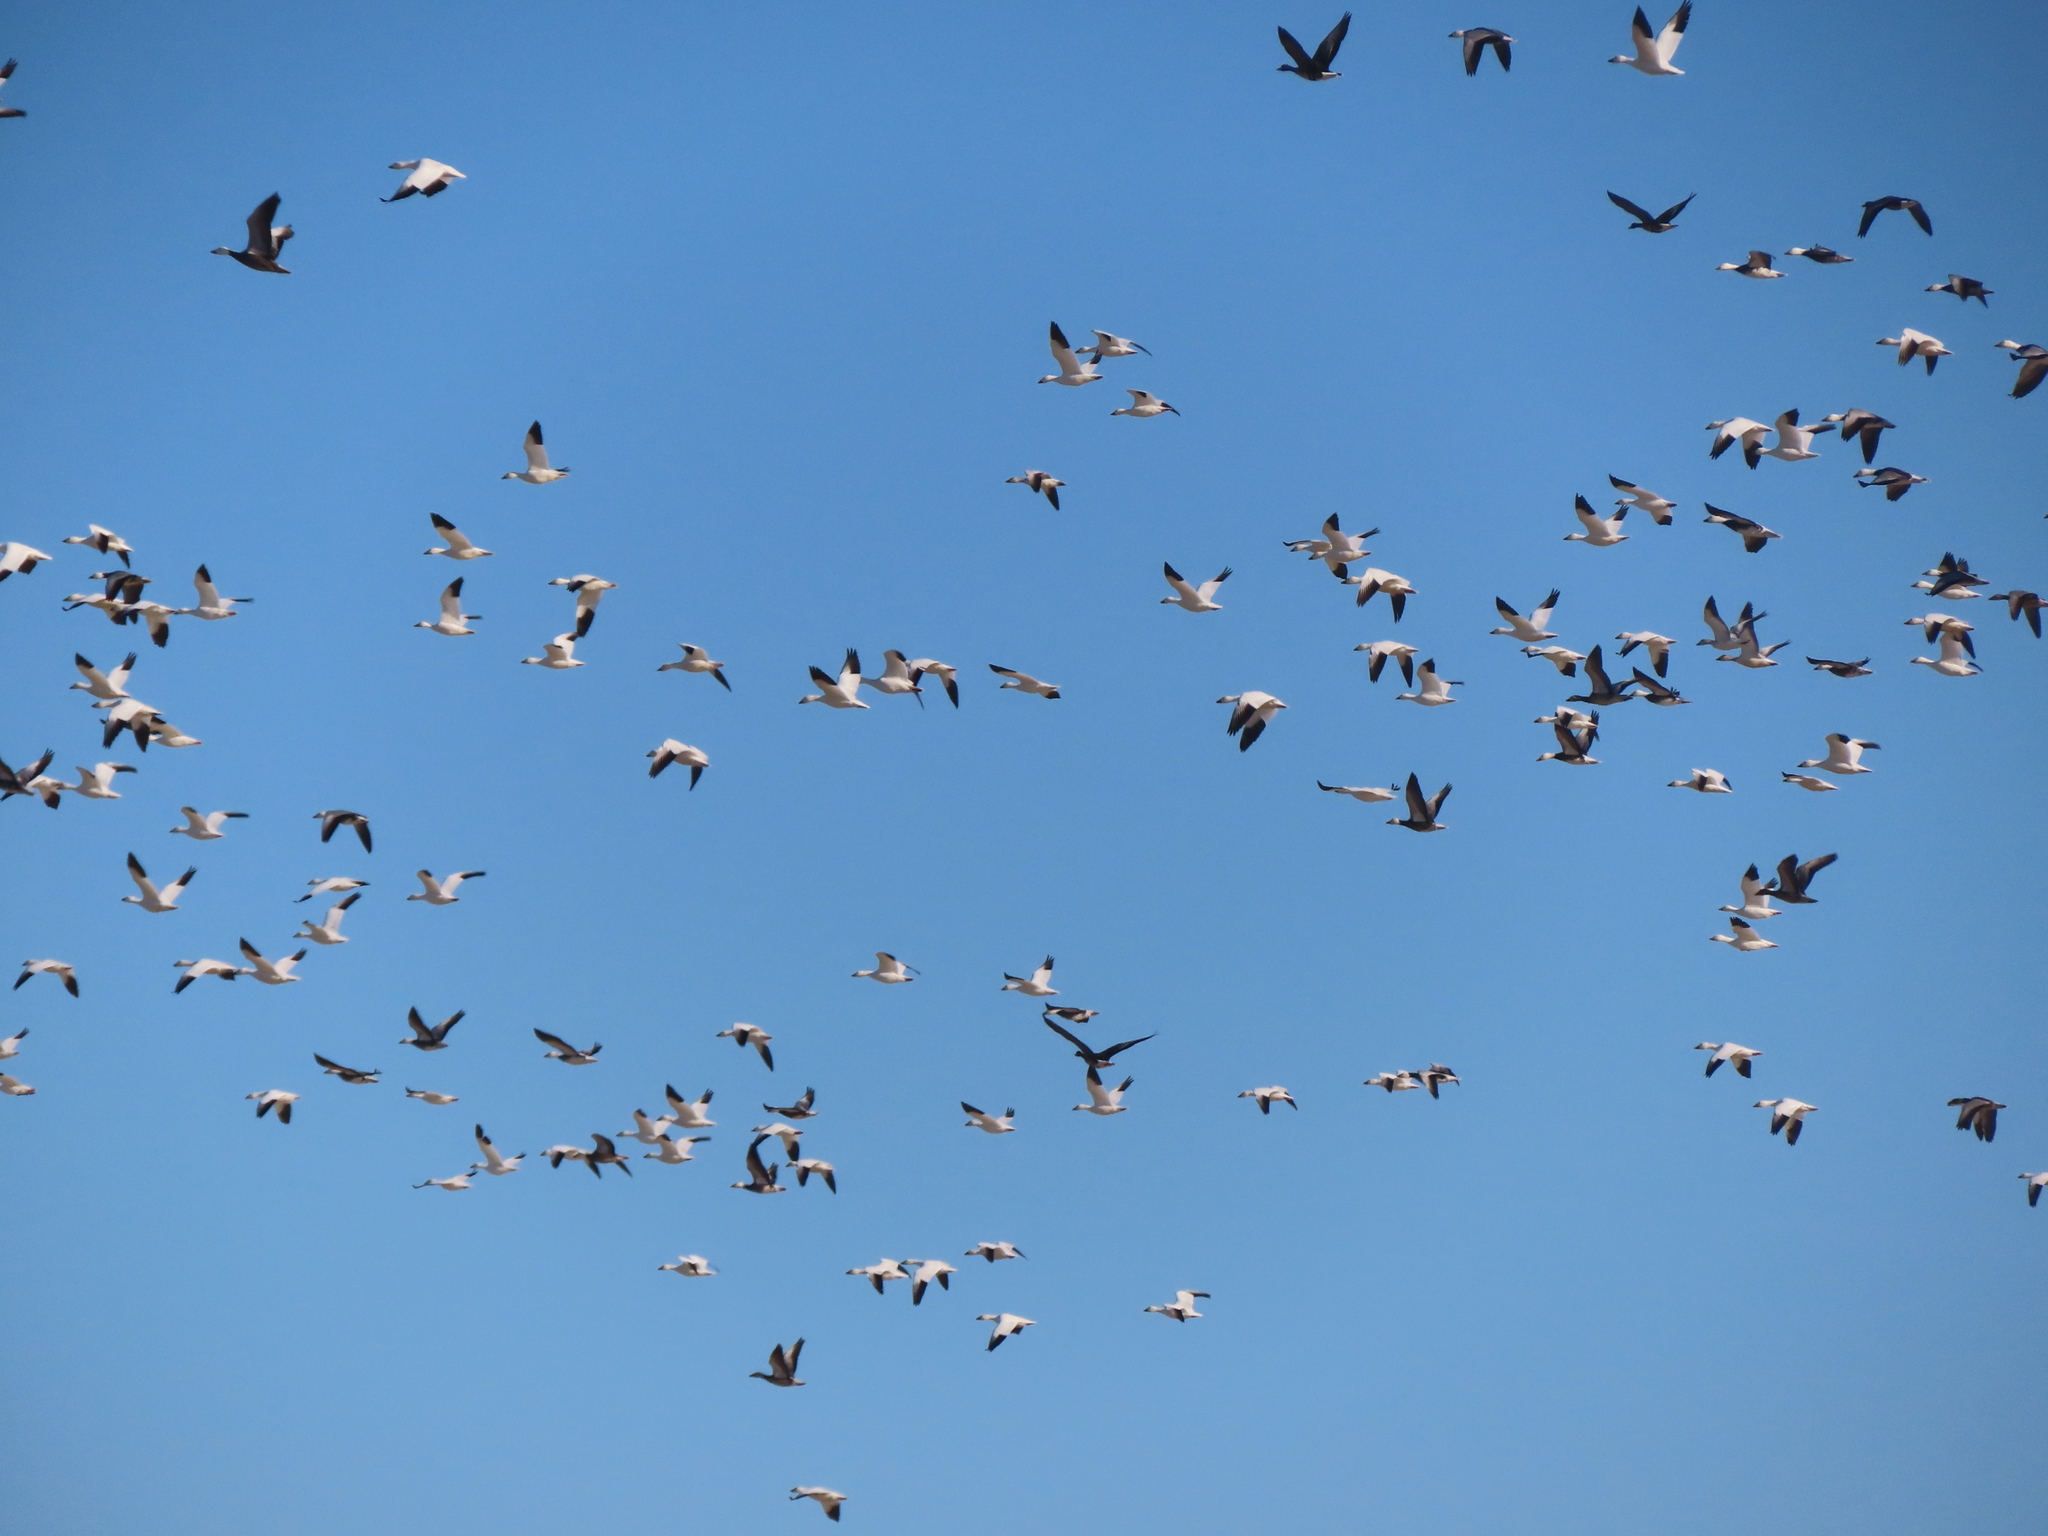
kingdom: Animalia
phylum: Chordata
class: Aves
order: Anseriformes
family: Anatidae
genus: Anser
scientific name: Anser caerulescens
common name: Snow goose
